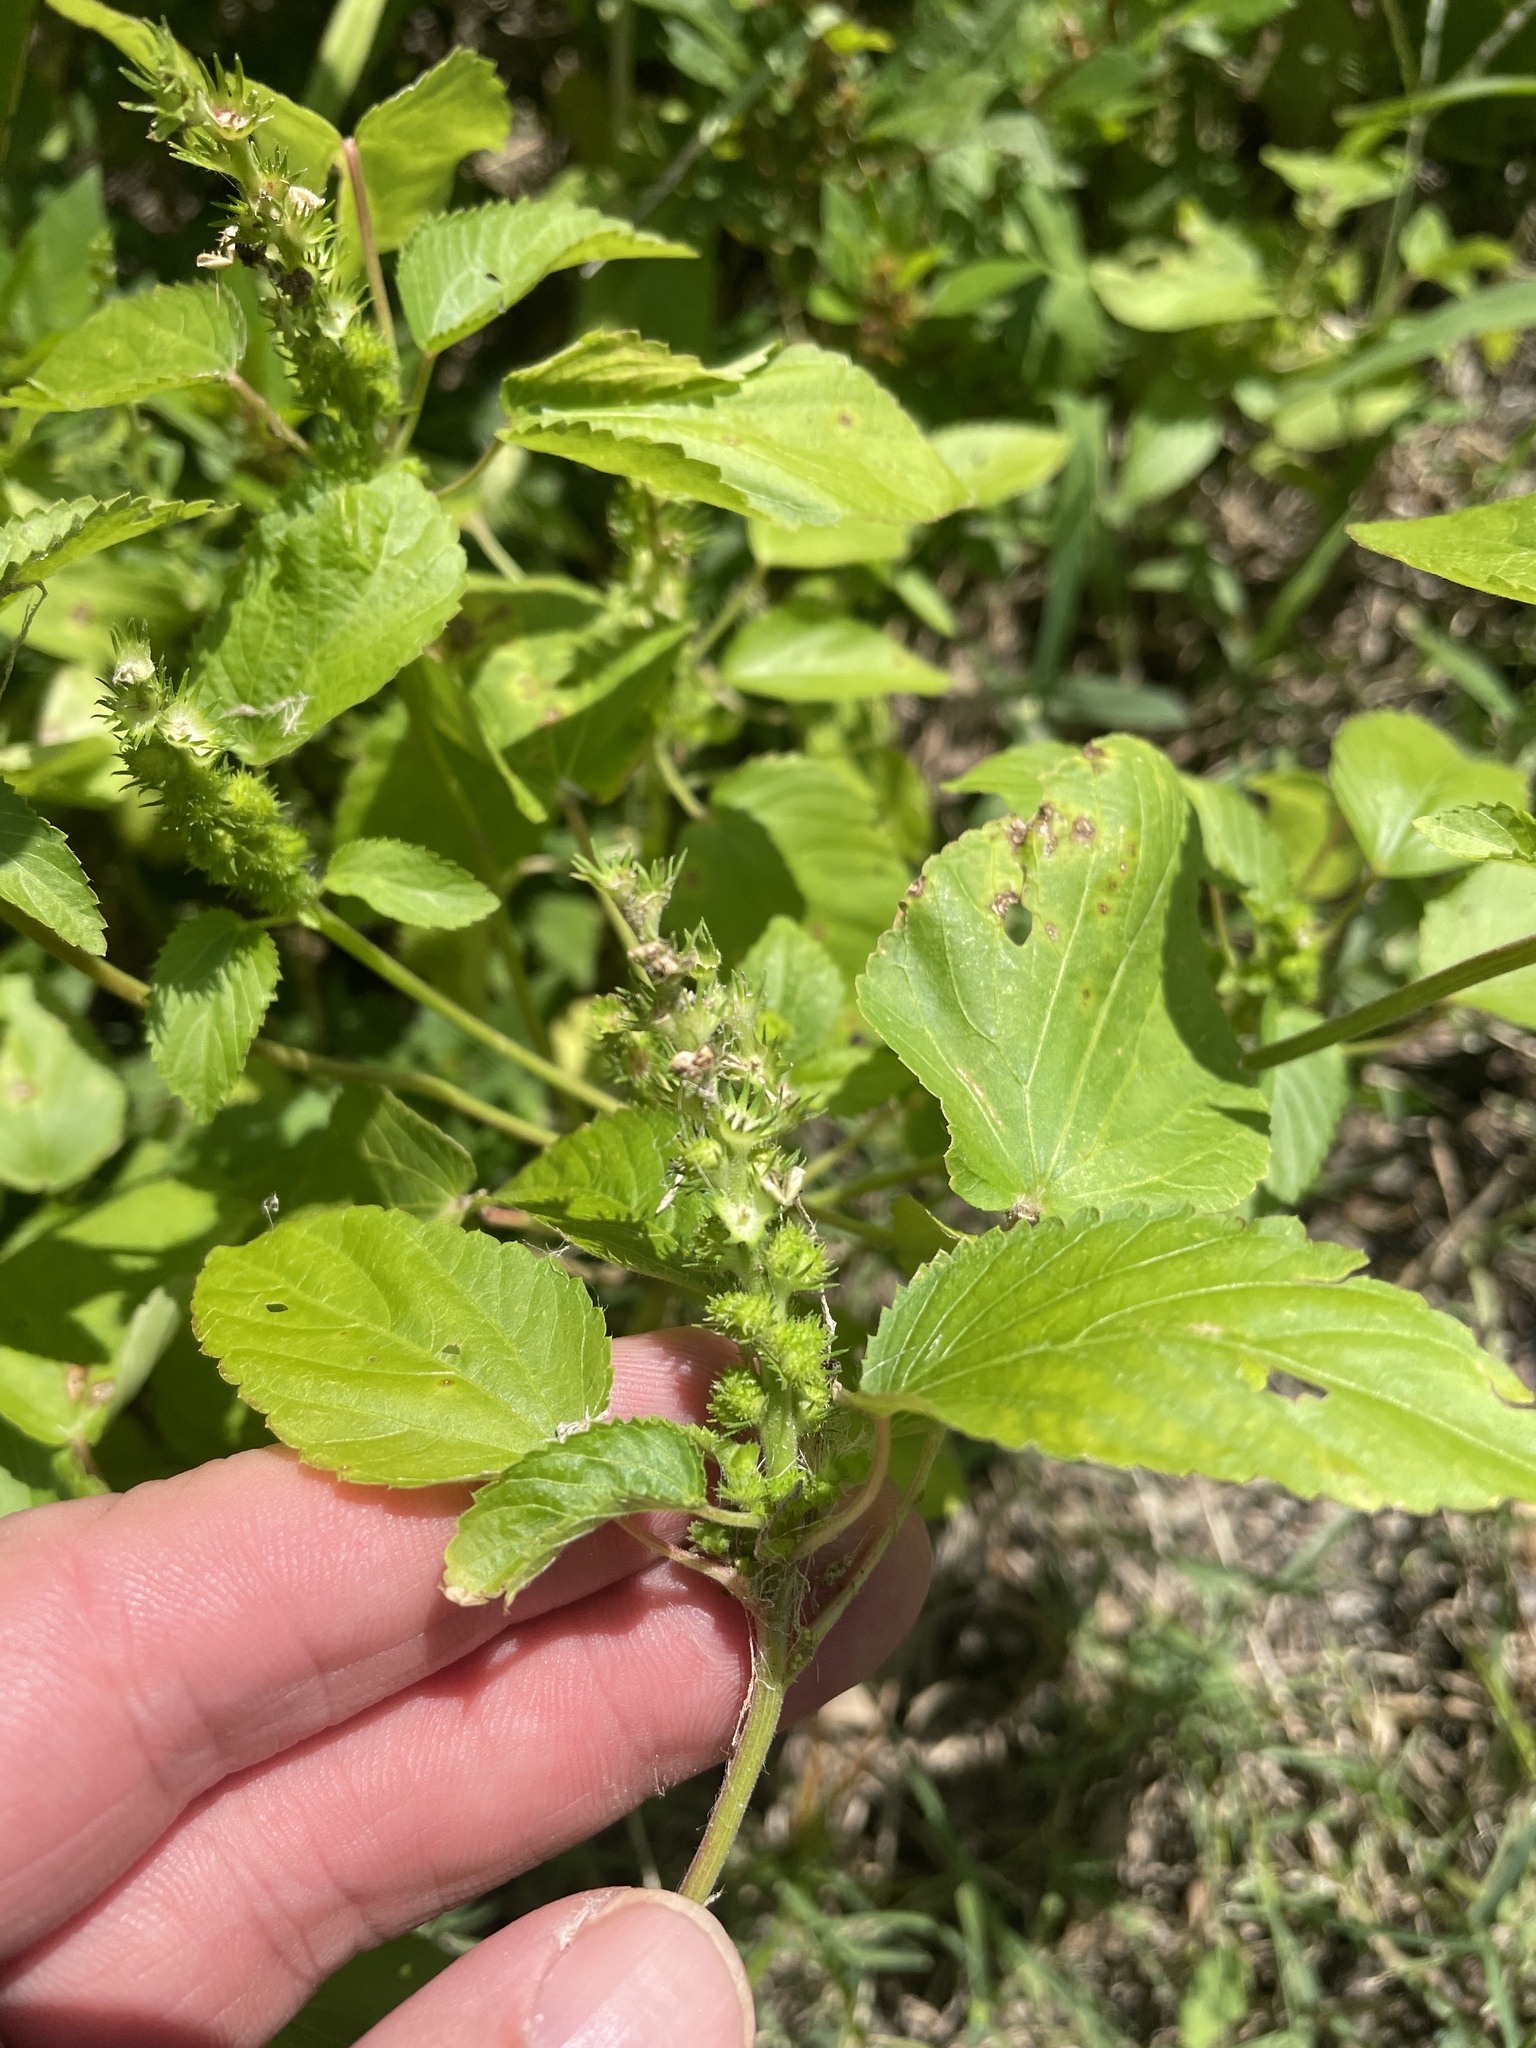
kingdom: Plantae
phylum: Tracheophyta
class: Magnoliopsida
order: Malpighiales
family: Euphorbiaceae
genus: Acalypha
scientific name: Acalypha ostryifolia
